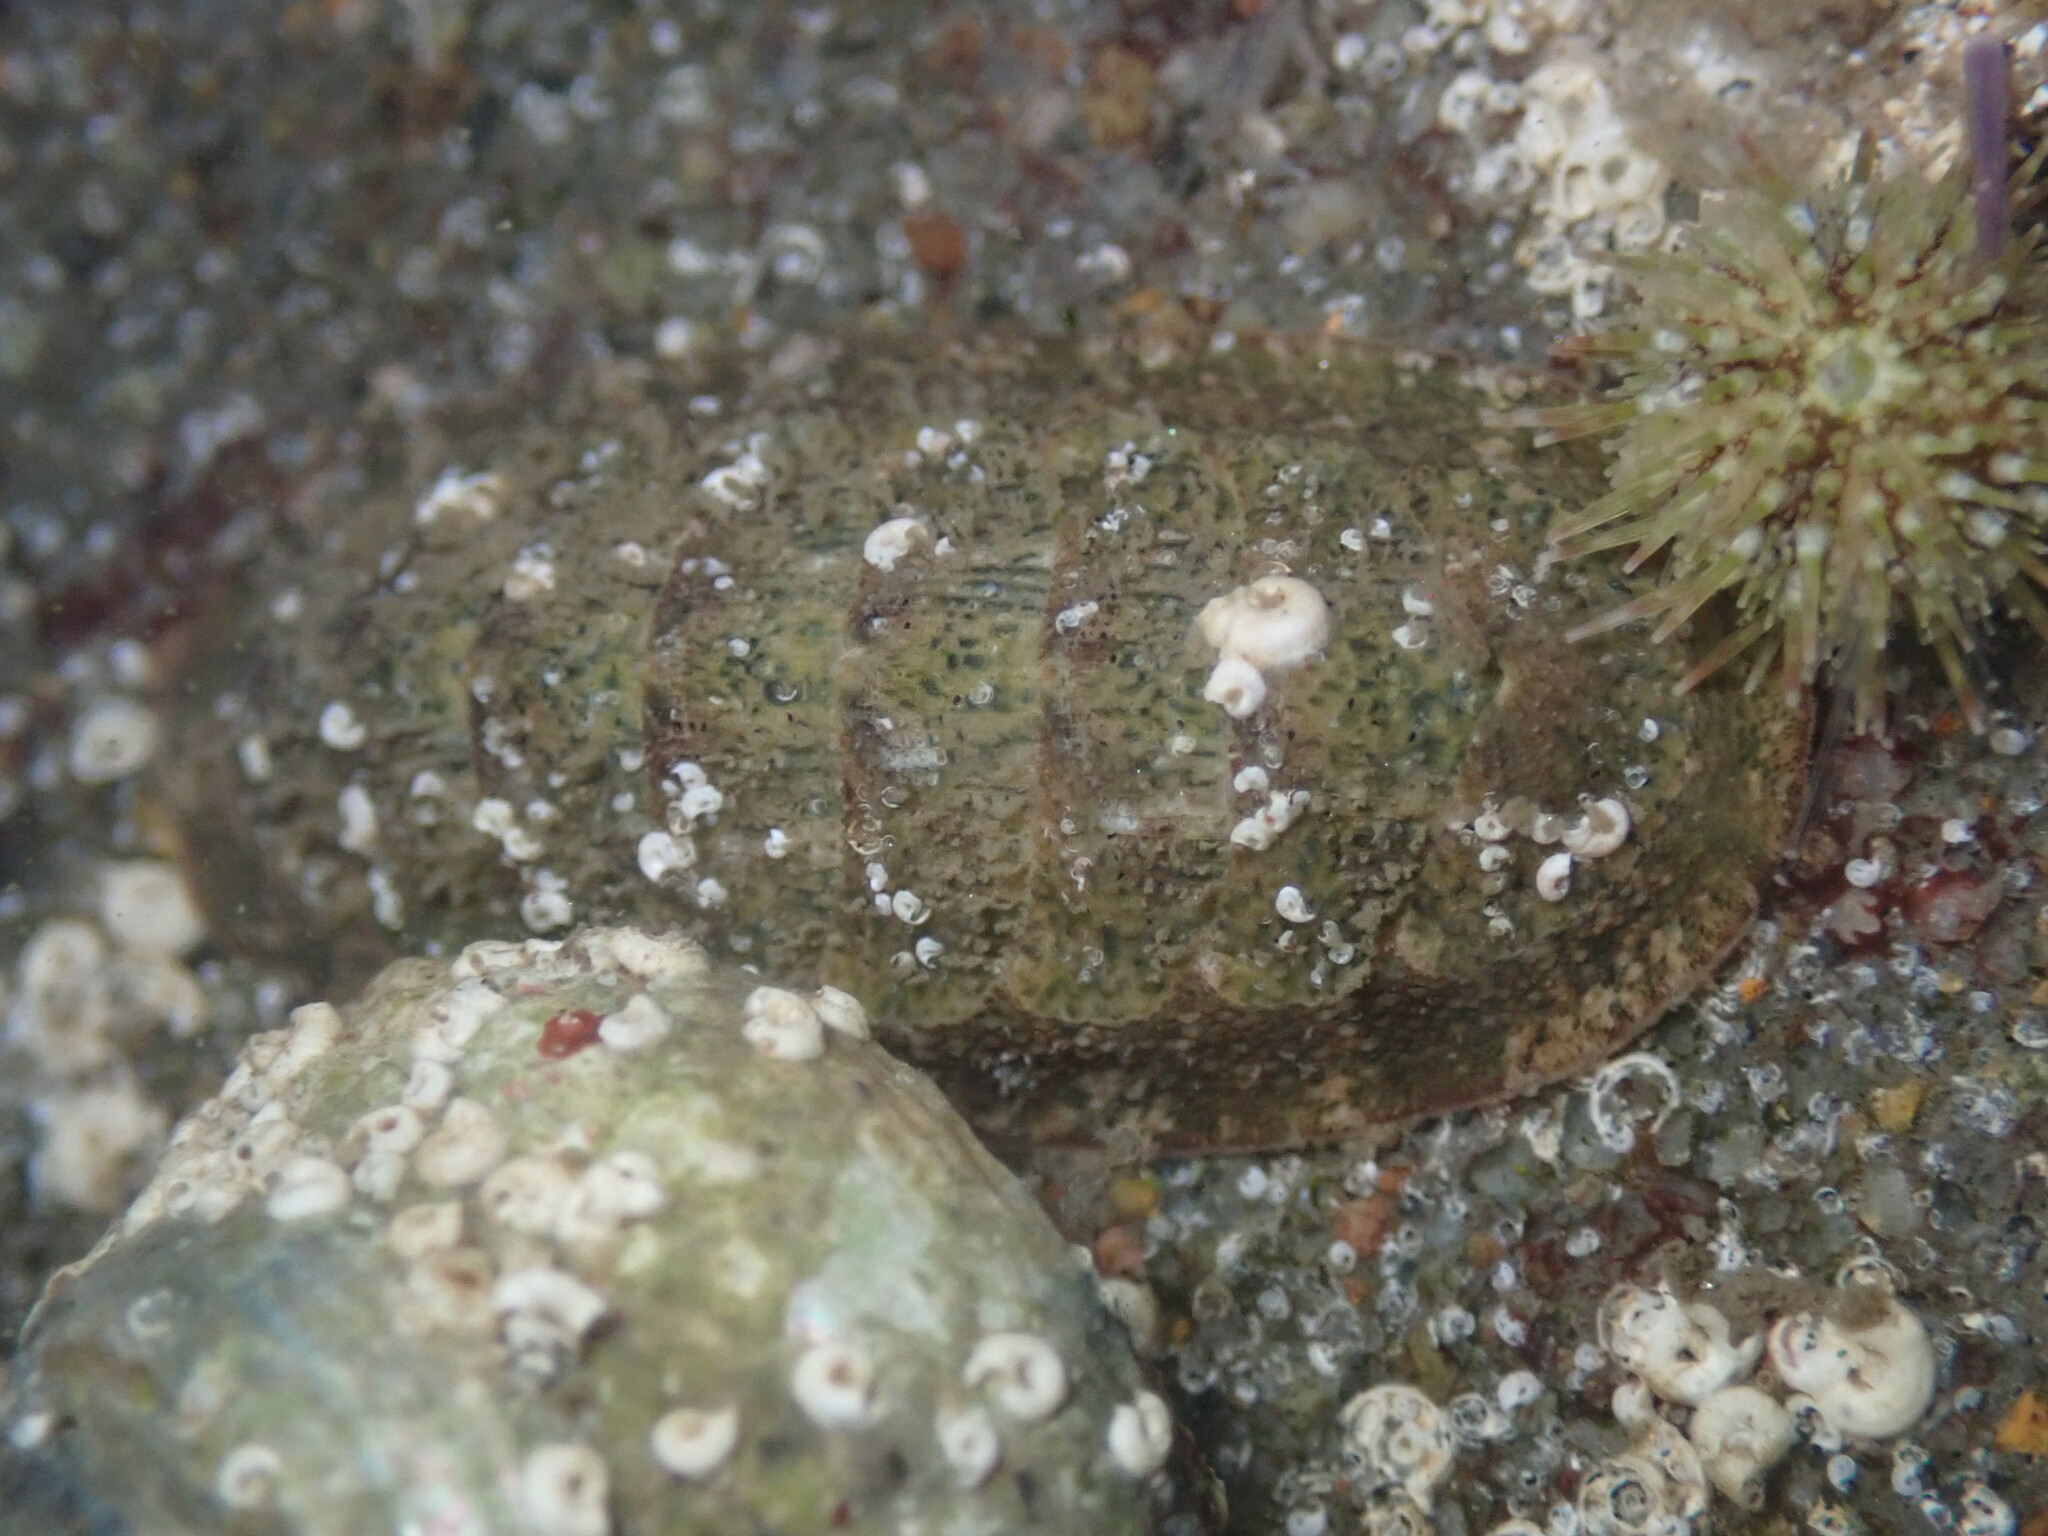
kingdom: Animalia
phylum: Mollusca
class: Polyplacophora
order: Chitonida
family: Ischnochitonidae
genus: Lepidozona
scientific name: Lepidozona pectinulata
